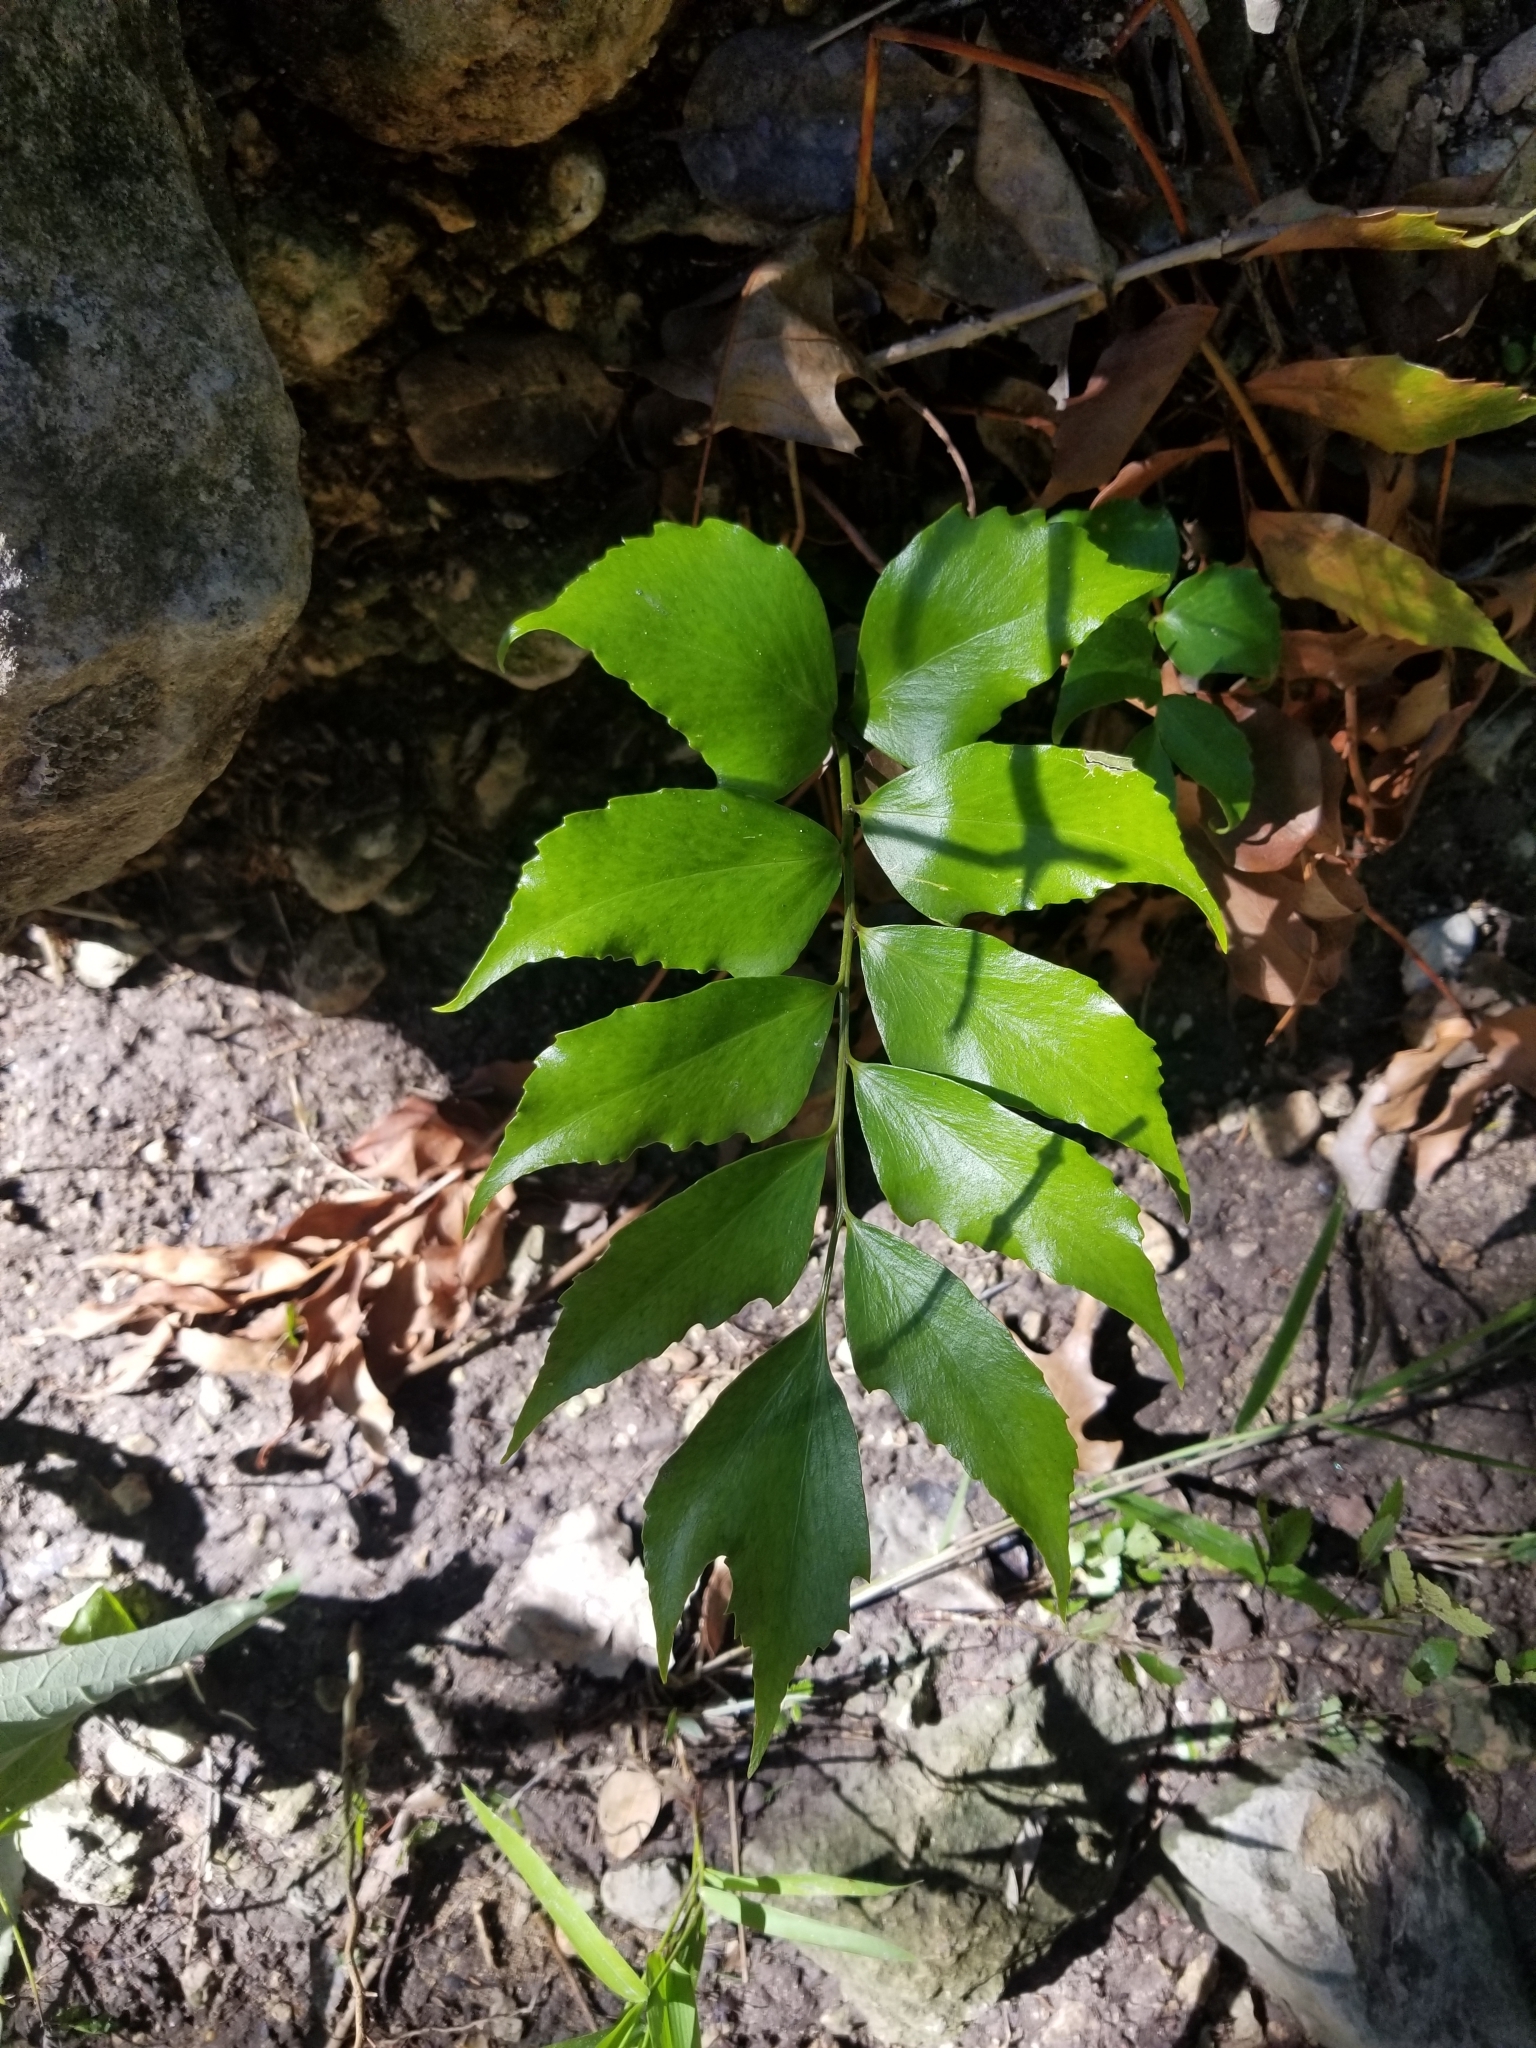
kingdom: Plantae
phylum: Tracheophyta
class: Polypodiopsida
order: Polypodiales
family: Dryopteridaceae
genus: Cyrtomium
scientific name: Cyrtomium falcatum
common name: House holly-fern
